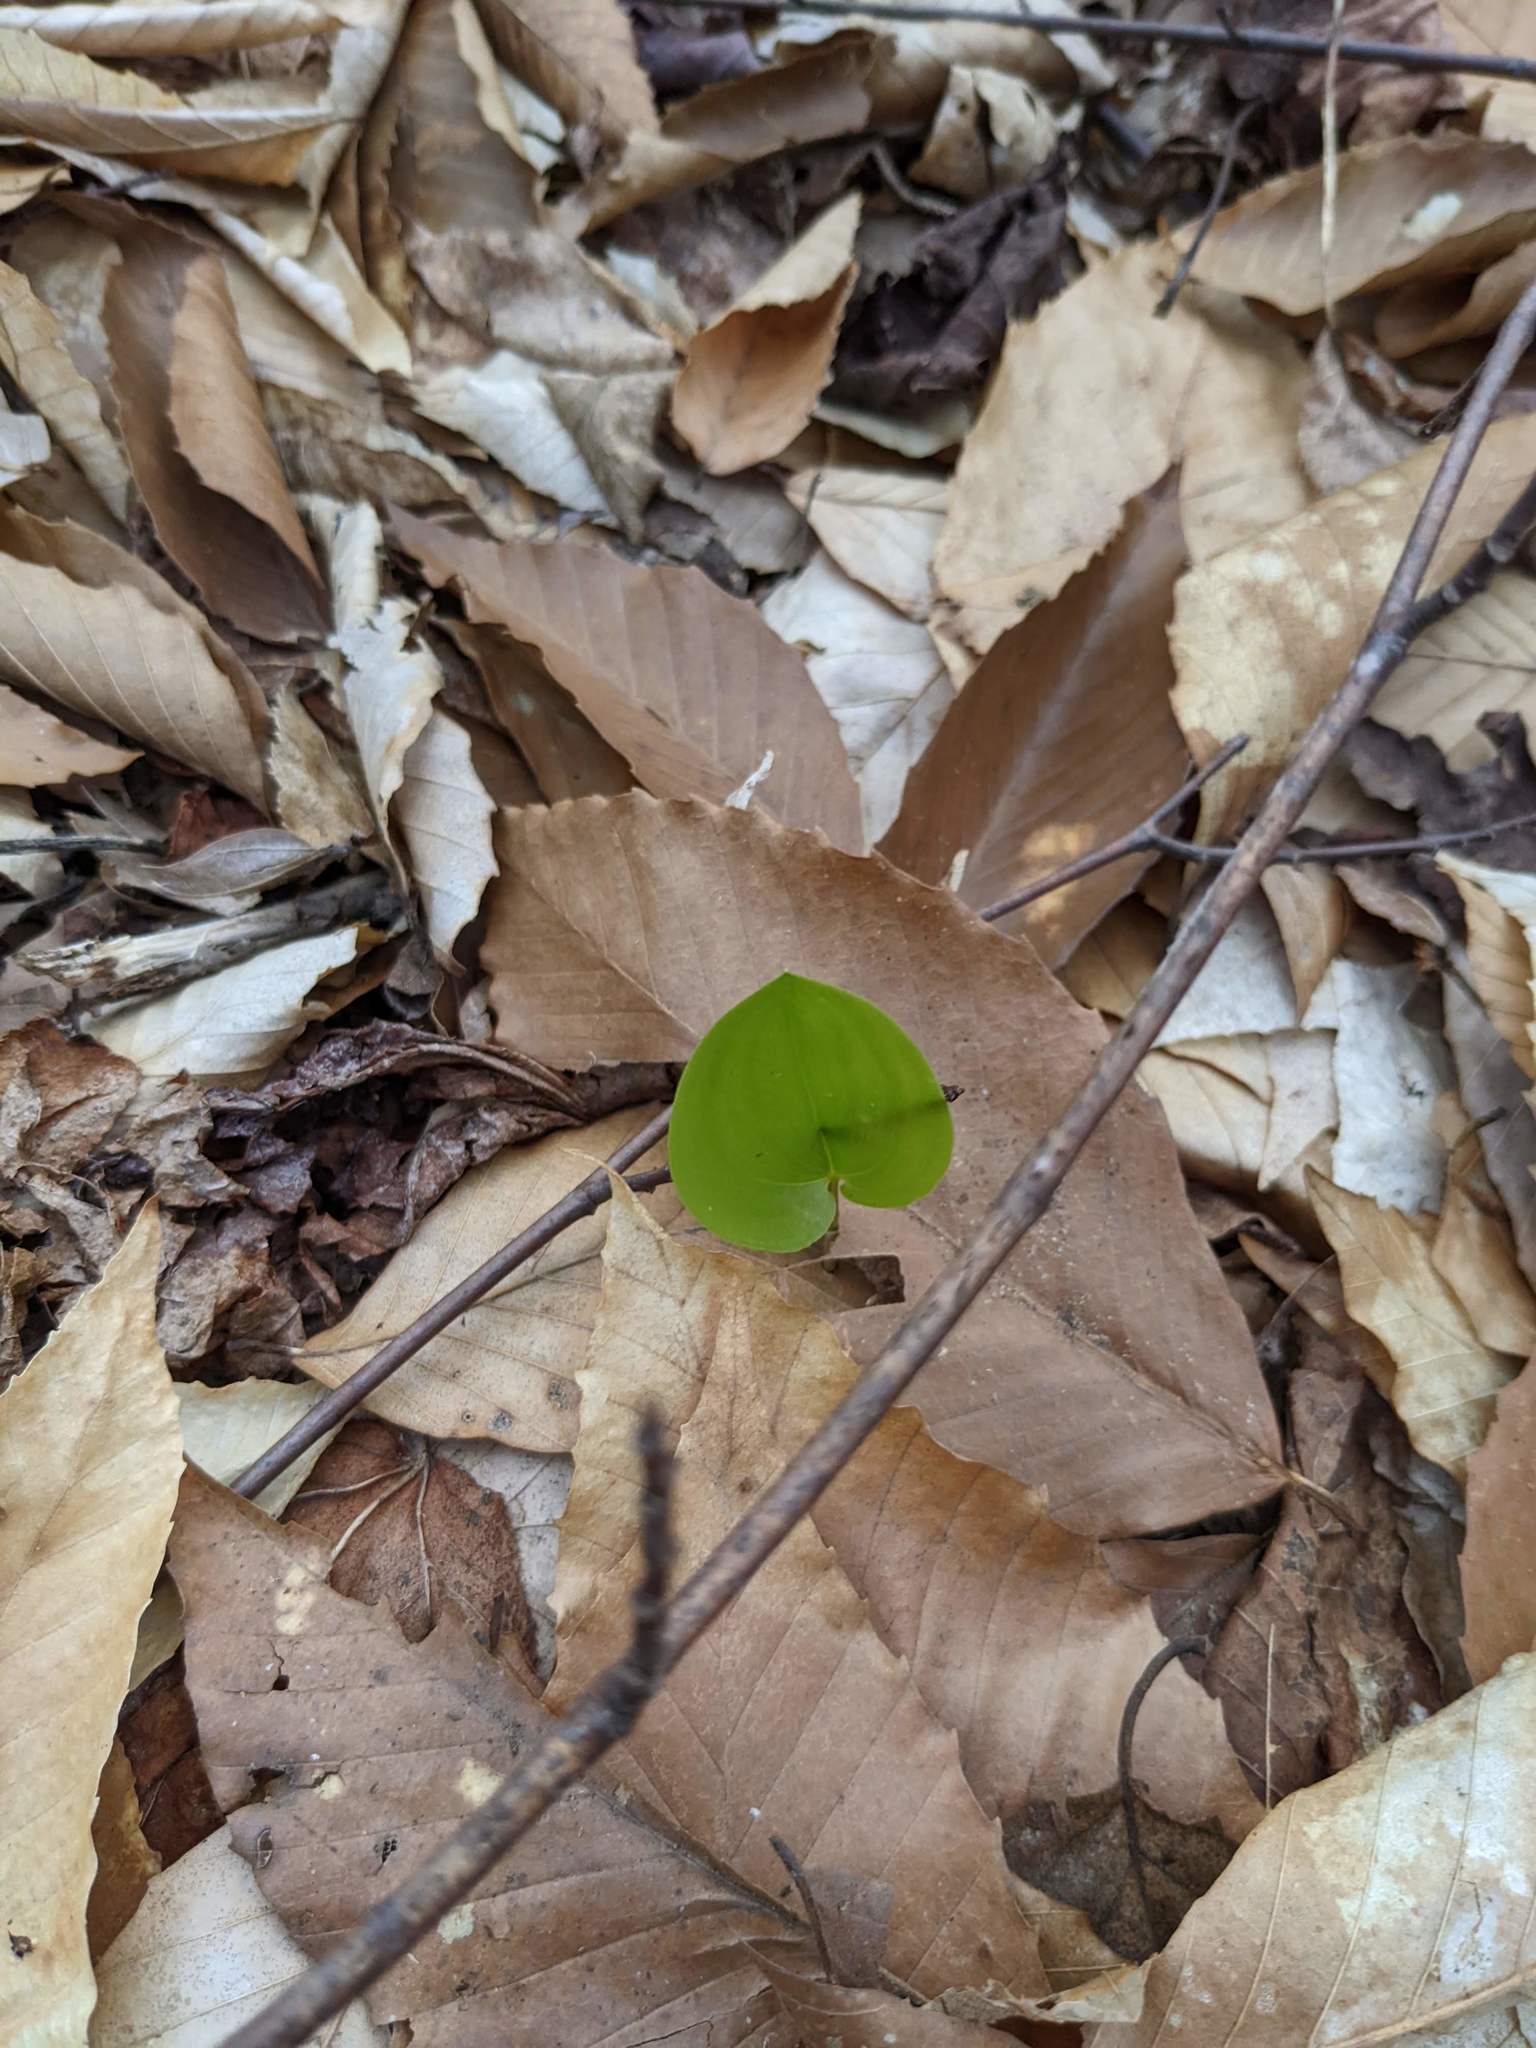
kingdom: Plantae
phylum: Tracheophyta
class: Liliopsida
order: Asparagales
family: Asparagaceae
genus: Maianthemum
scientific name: Maianthemum canadense
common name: False lily-of-the-valley
